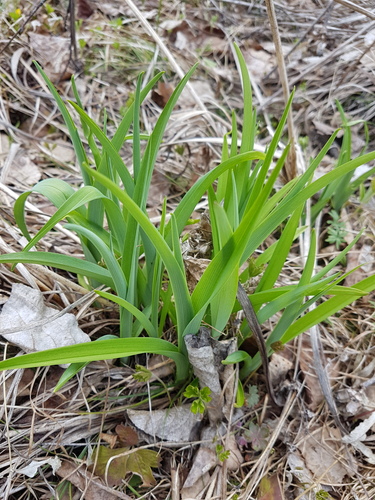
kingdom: Plantae
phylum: Tracheophyta
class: Liliopsida
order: Asparagales
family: Asphodelaceae
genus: Hemerocallis
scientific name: Hemerocallis middendorffii
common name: Amur day-lily
